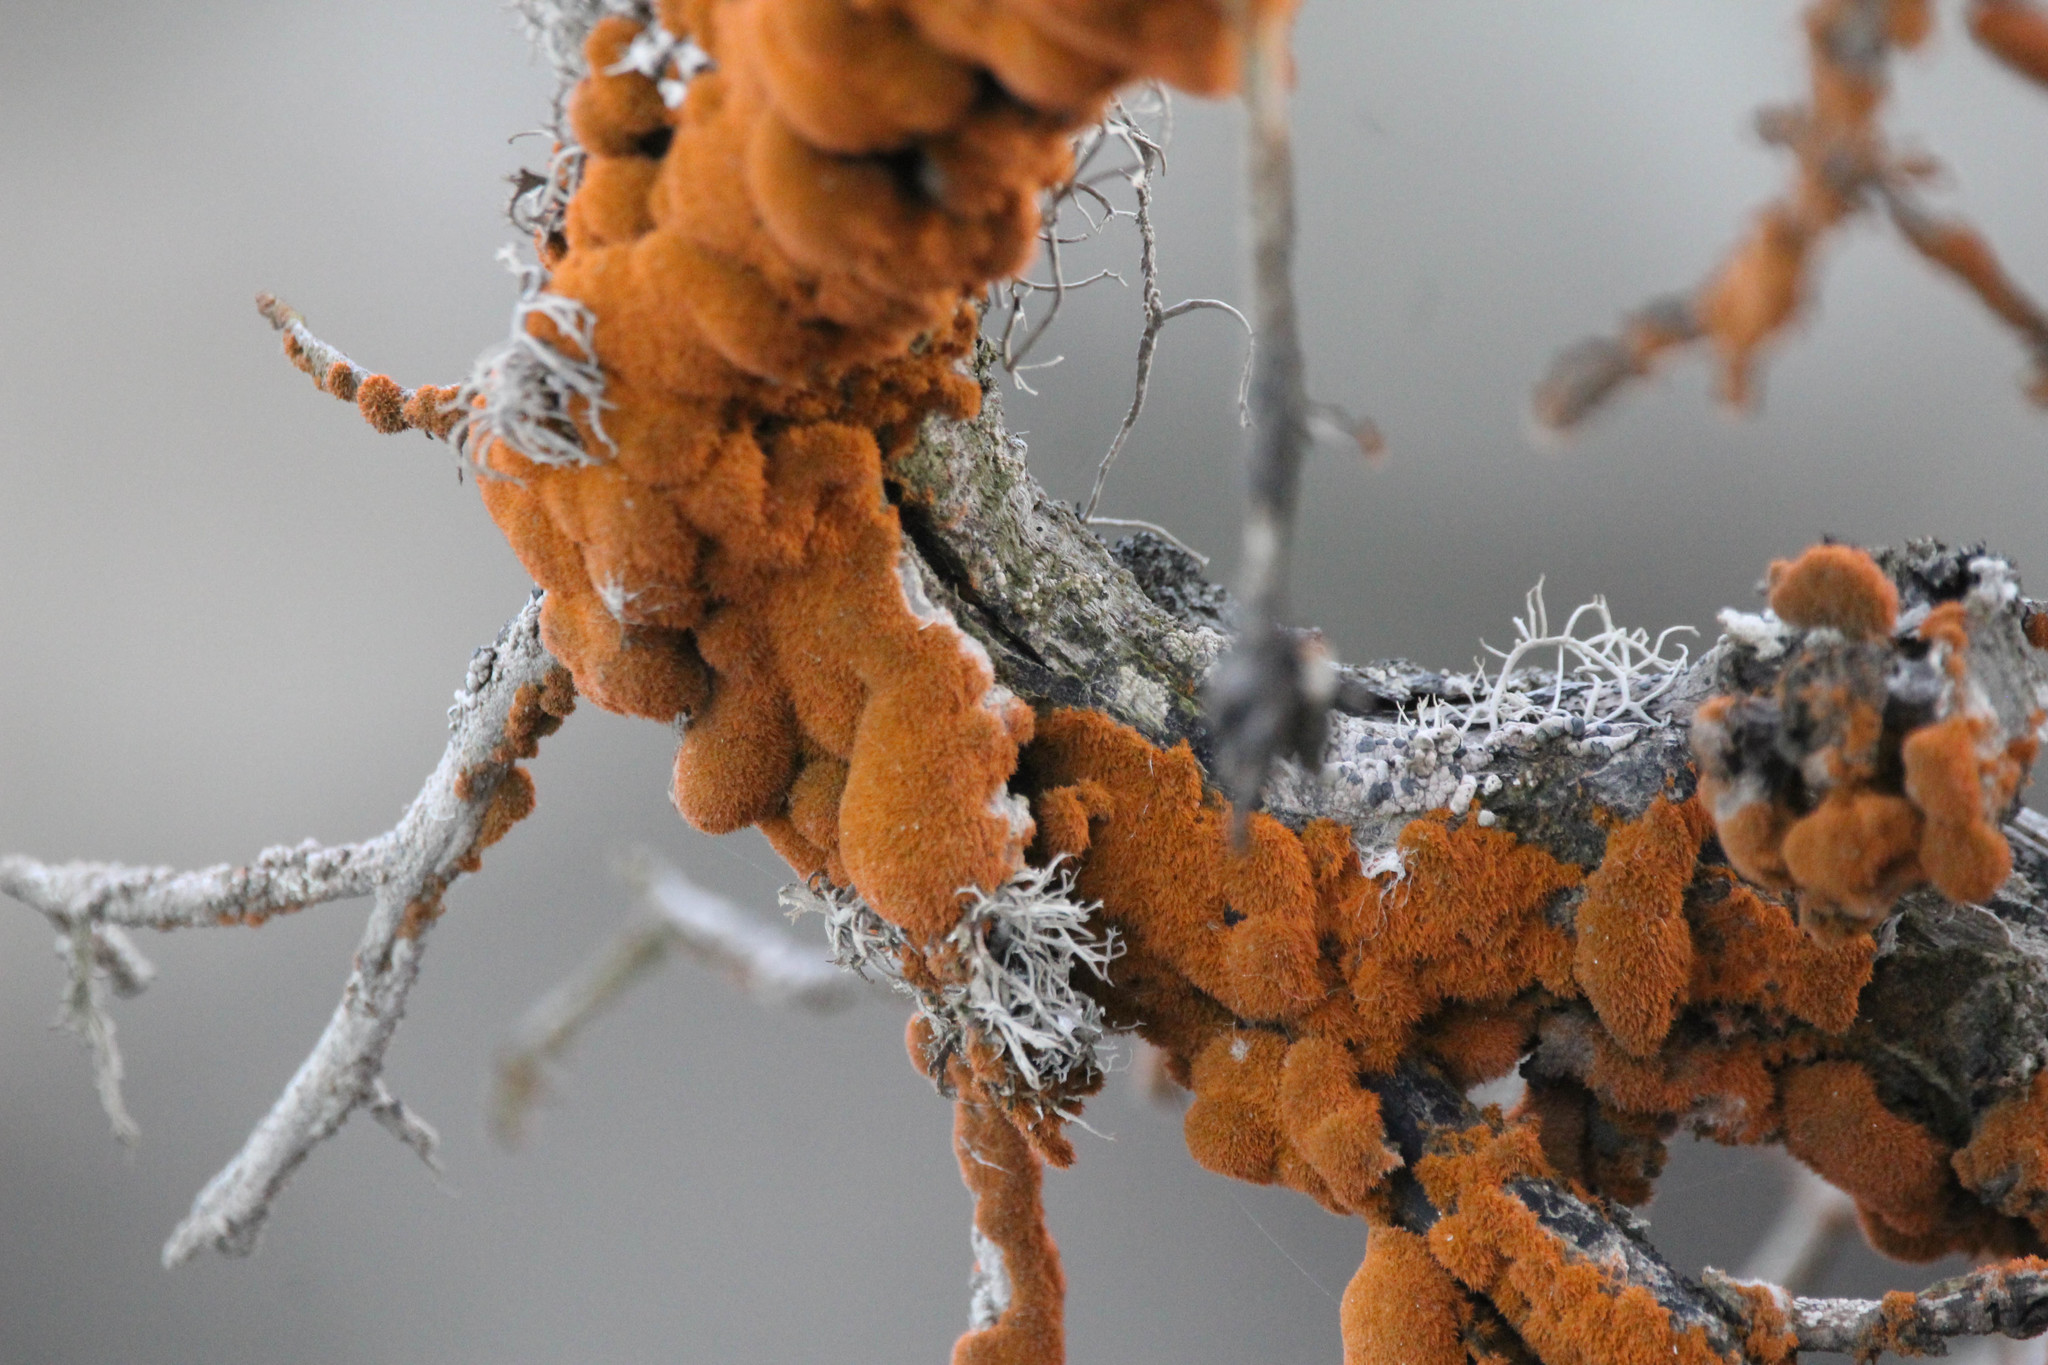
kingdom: Plantae
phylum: Chlorophyta
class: Ulvophyceae
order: Trentepohliales
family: Trentepohliaceae
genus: Trentepohlia
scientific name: Trentepohlia aurea
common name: Orange rock hair
